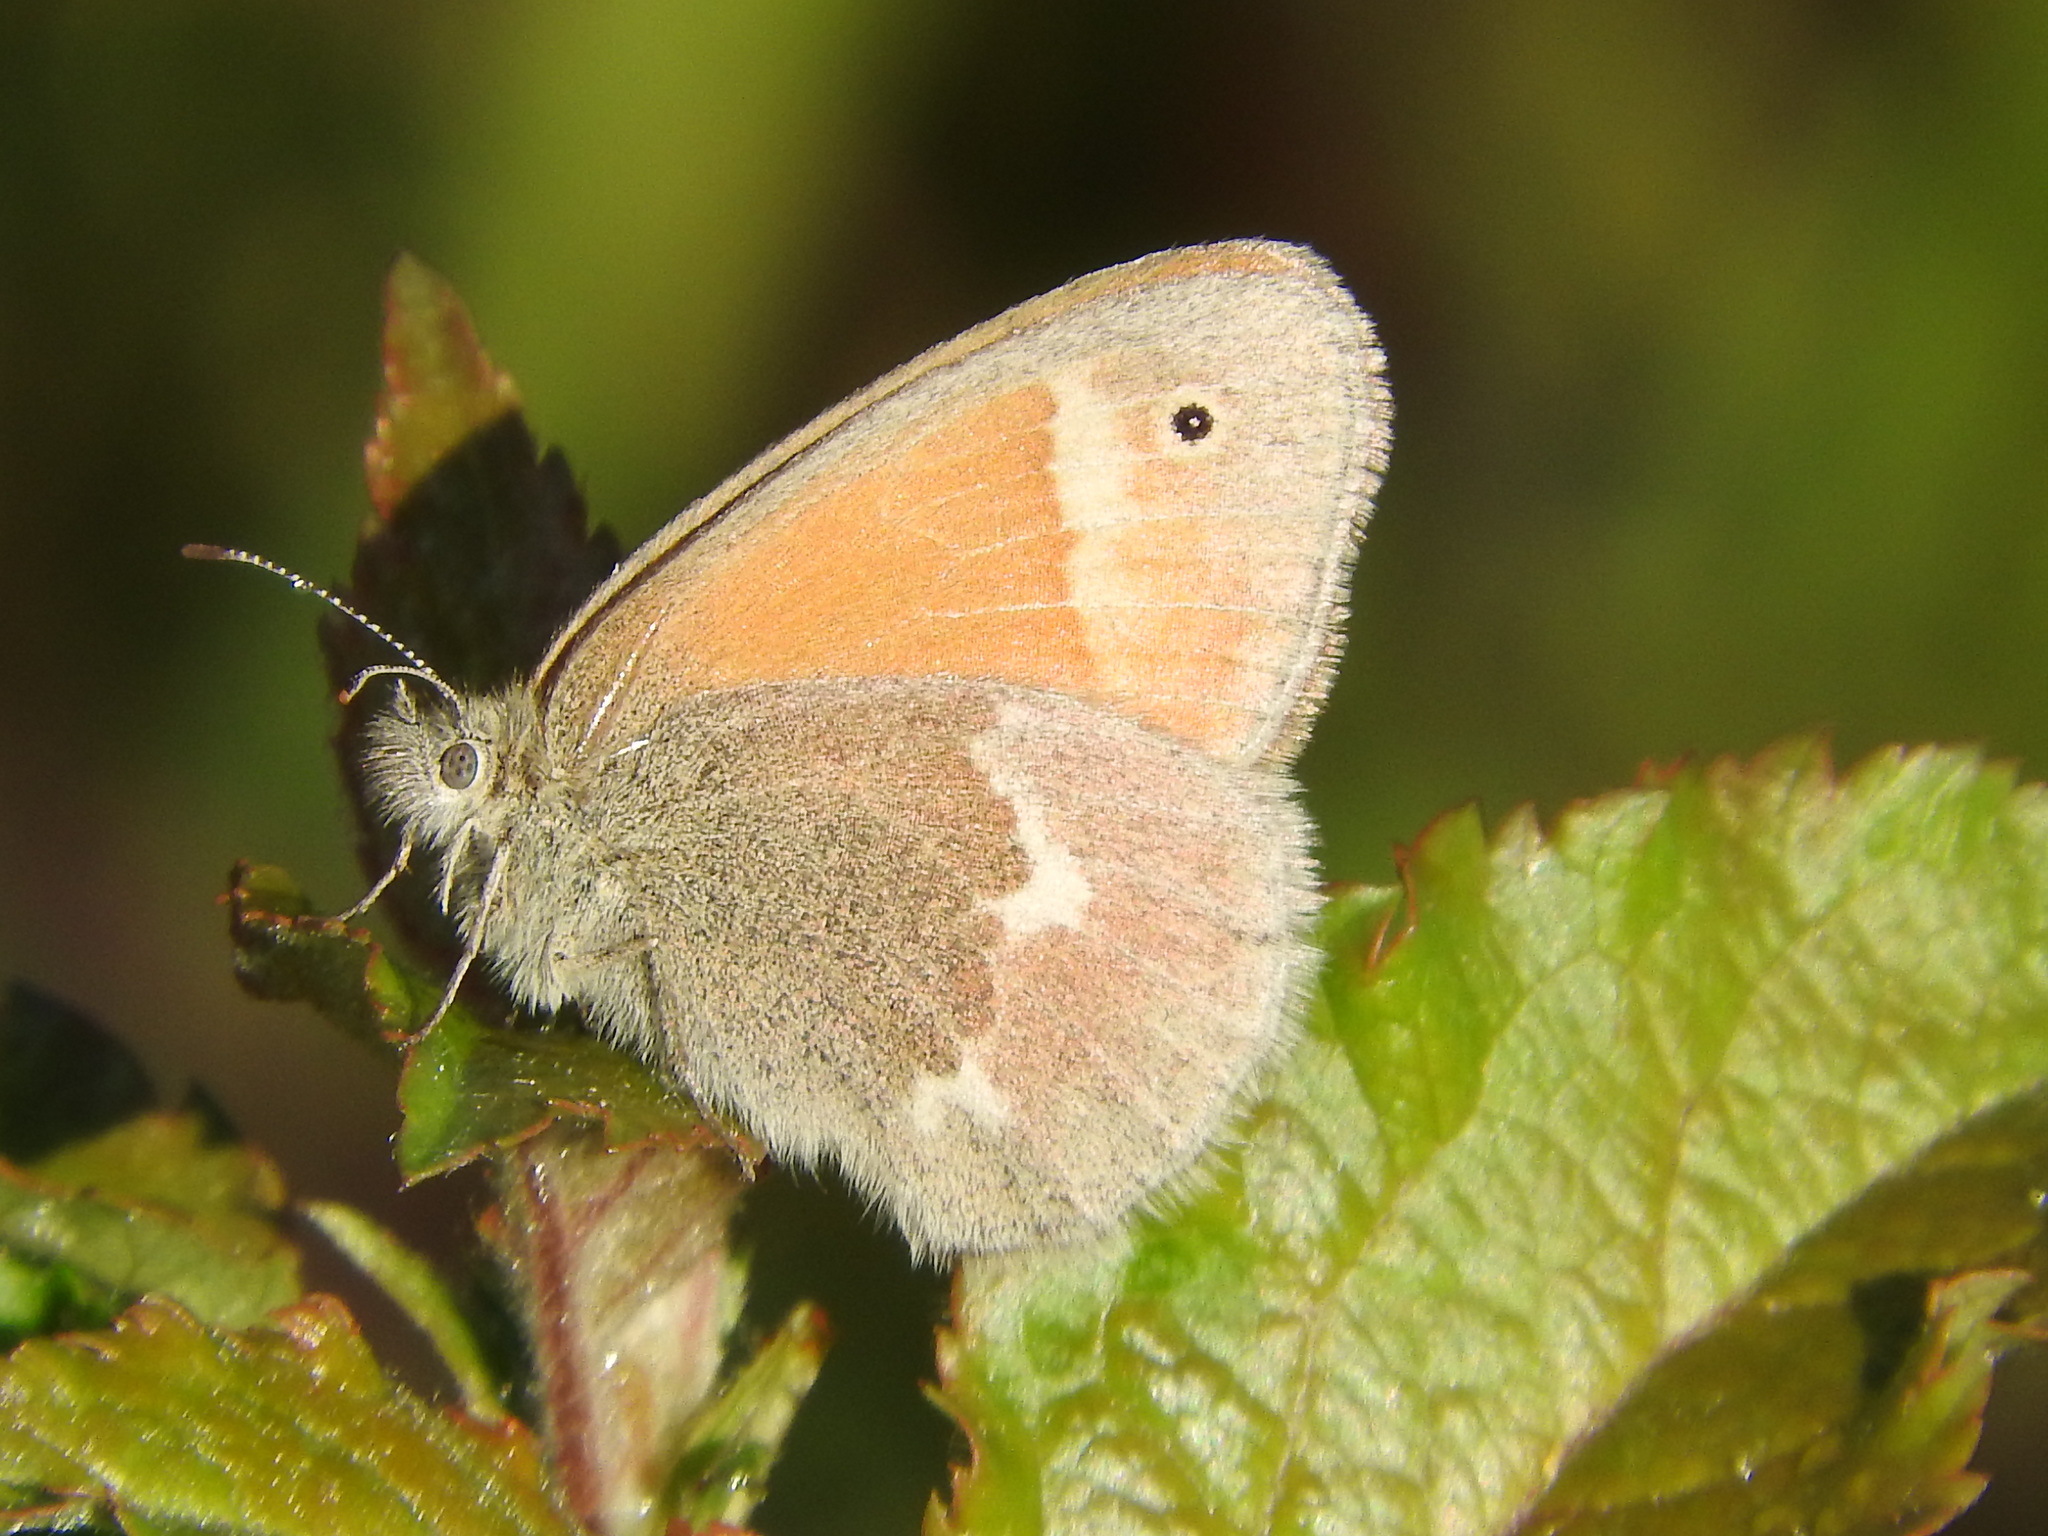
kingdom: Animalia
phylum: Arthropoda
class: Insecta
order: Lepidoptera
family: Nymphalidae
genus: Coenonympha
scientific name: Coenonympha california
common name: Common ringlet
